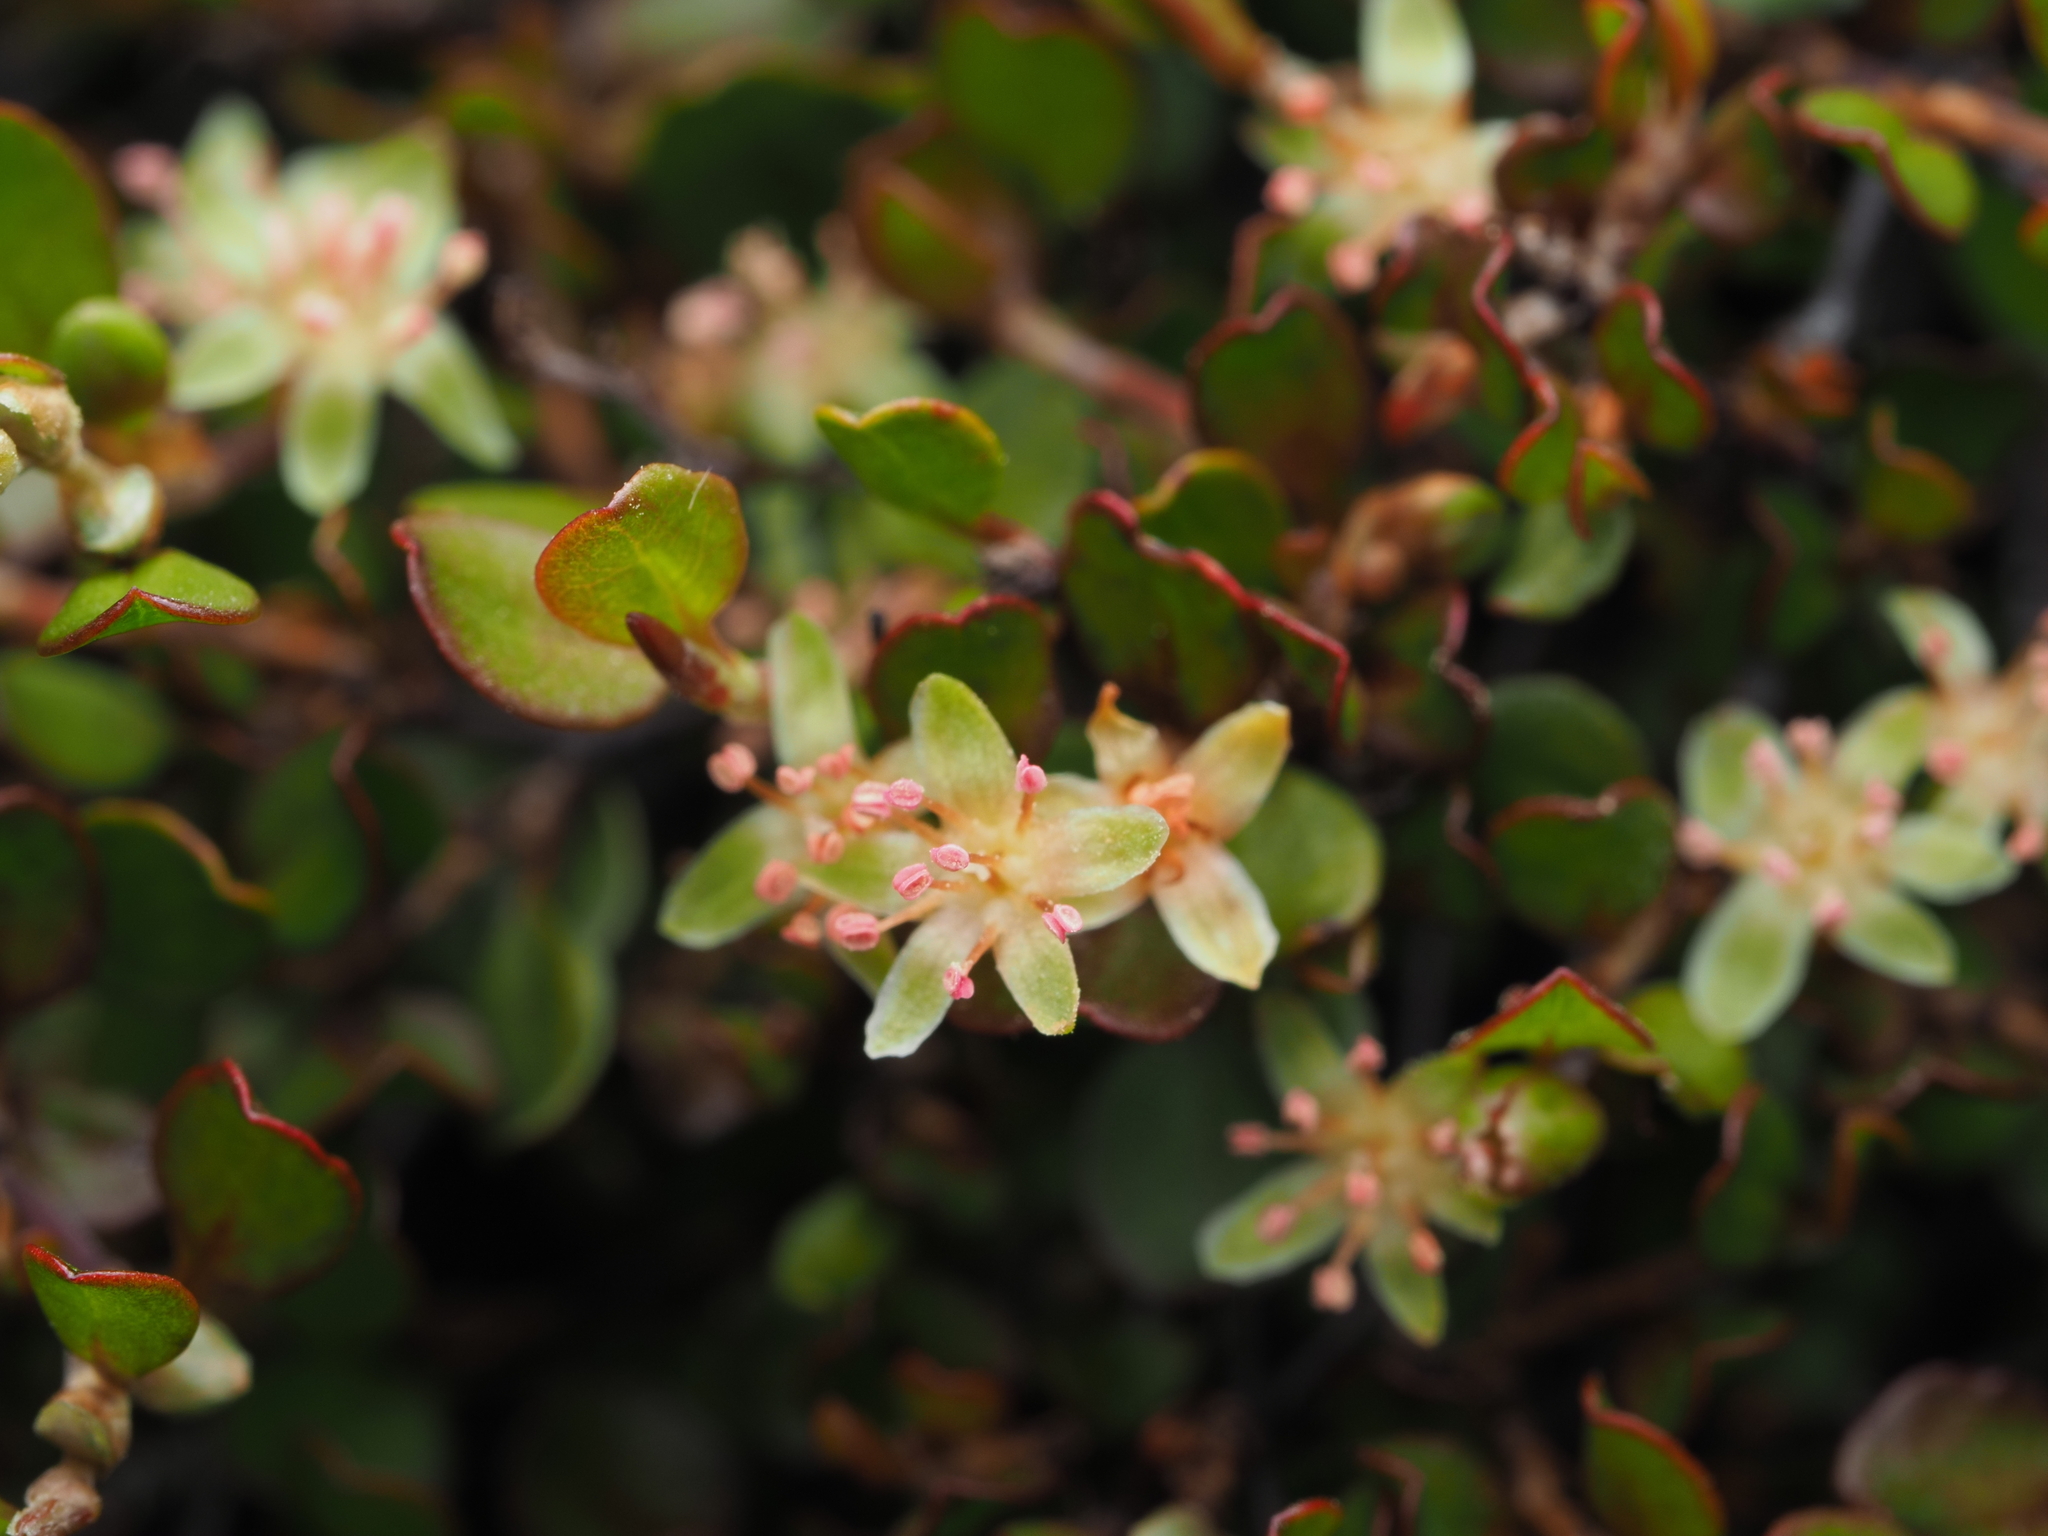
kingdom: Plantae
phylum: Tracheophyta
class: Magnoliopsida
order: Caryophyllales
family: Polygonaceae
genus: Muehlenbeckia
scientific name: Muehlenbeckia axillaris
